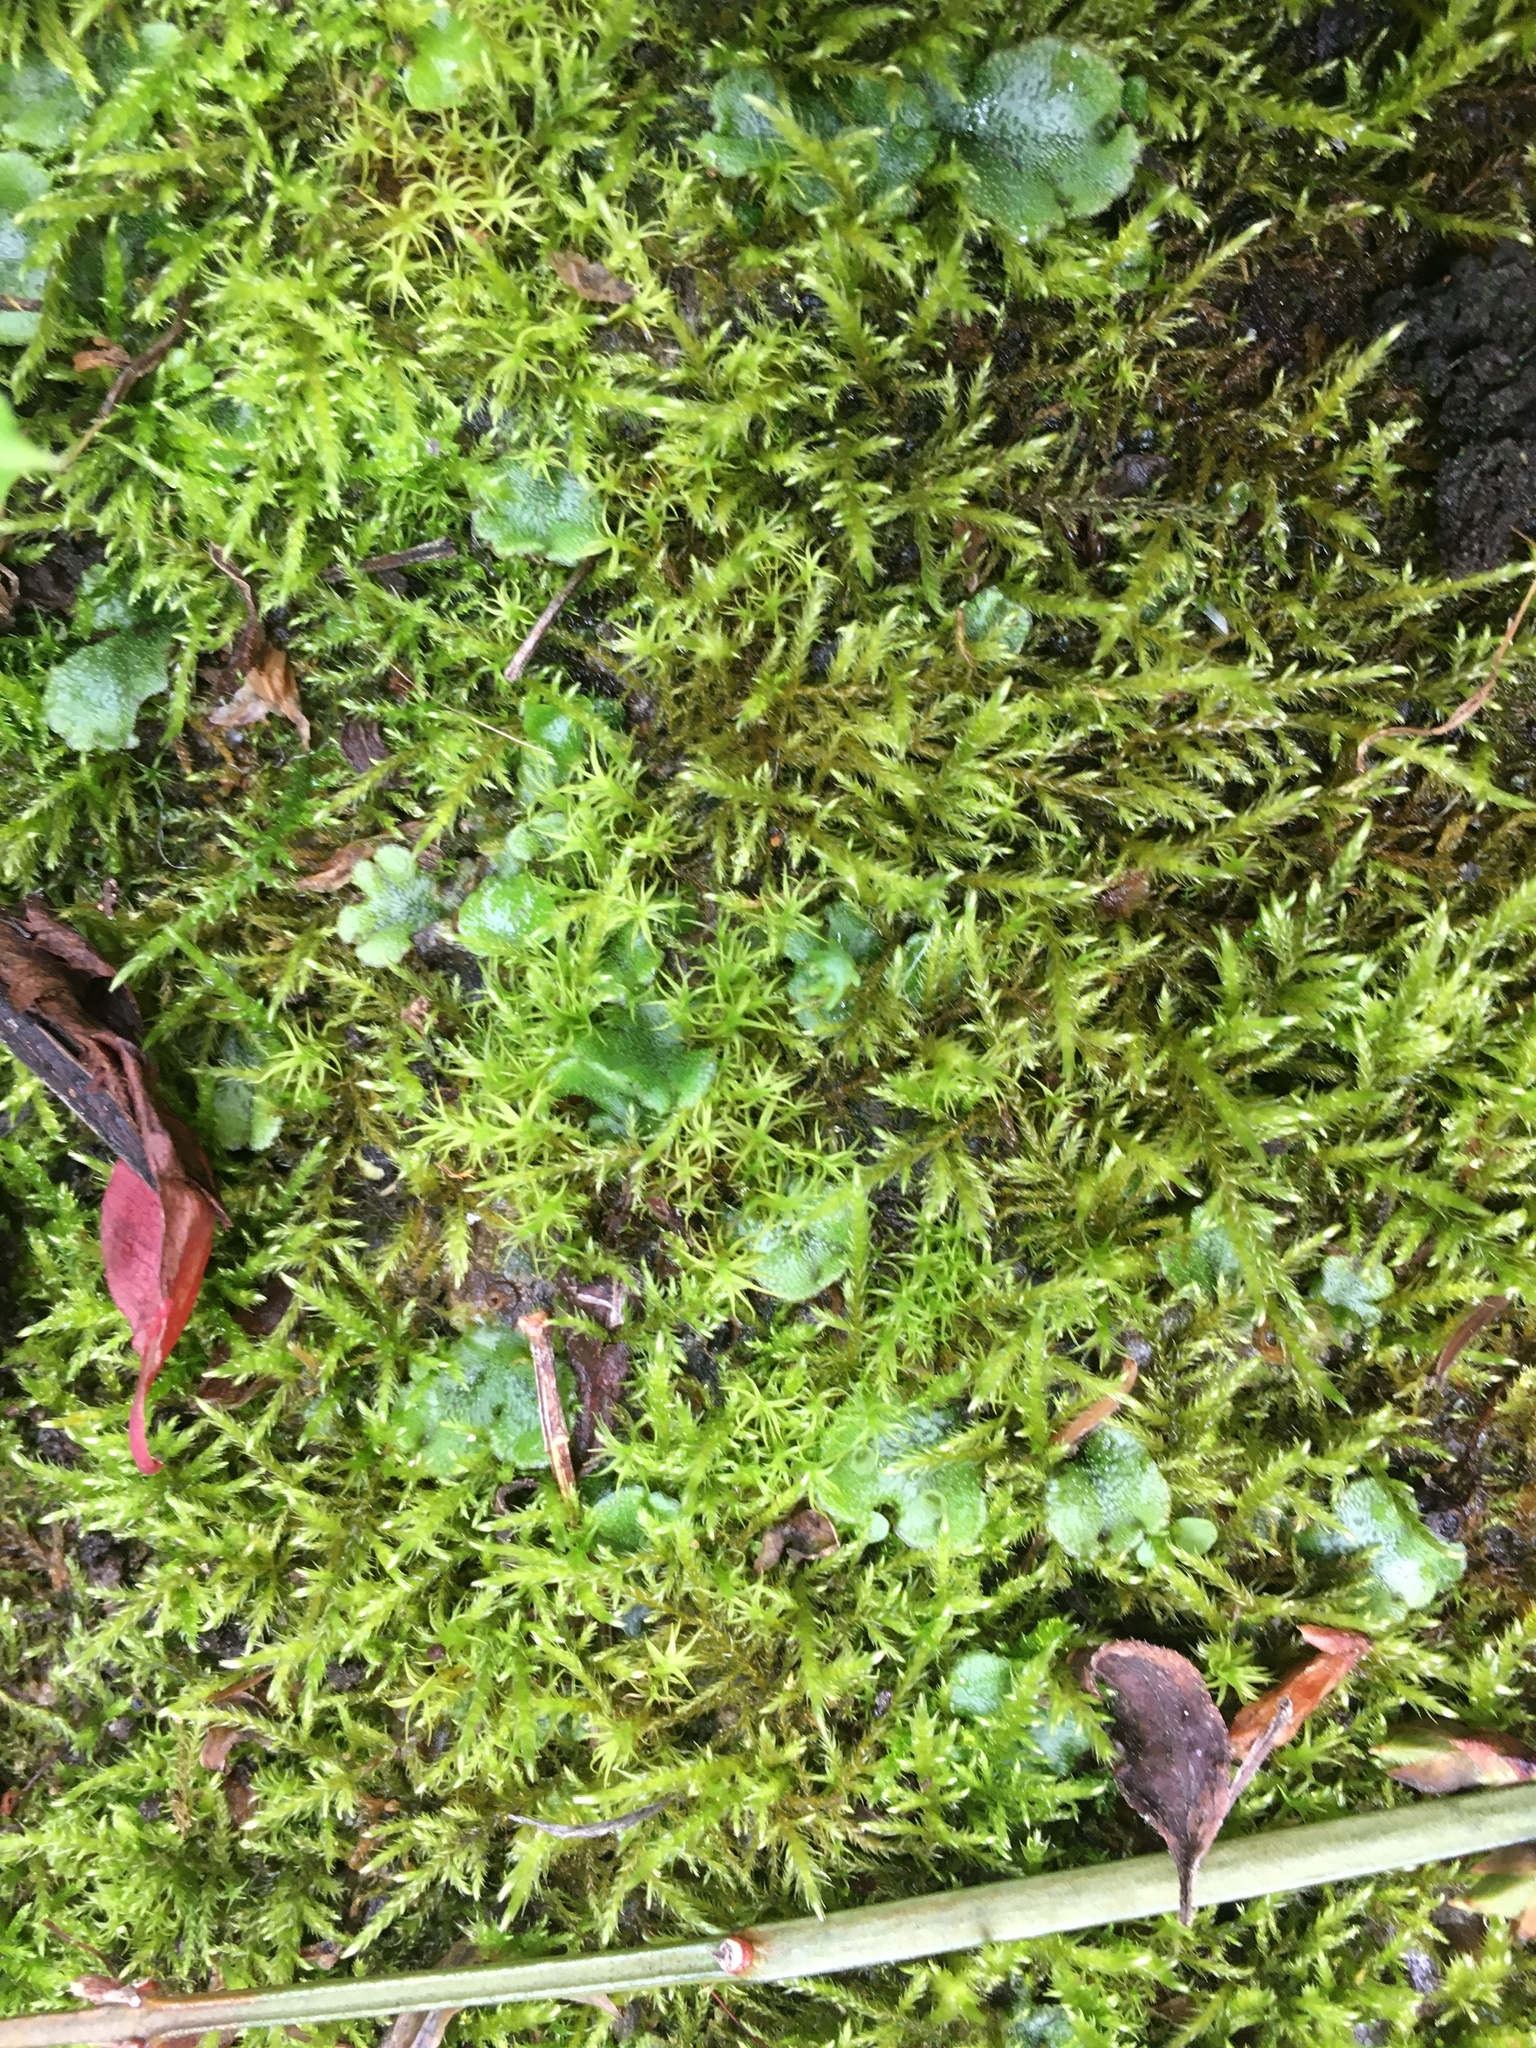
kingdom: Plantae
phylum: Marchantiophyta
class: Marchantiopsida
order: Lunulariales
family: Lunulariaceae
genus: Lunularia
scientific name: Lunularia cruciata
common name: Crescent-cup liverwort
